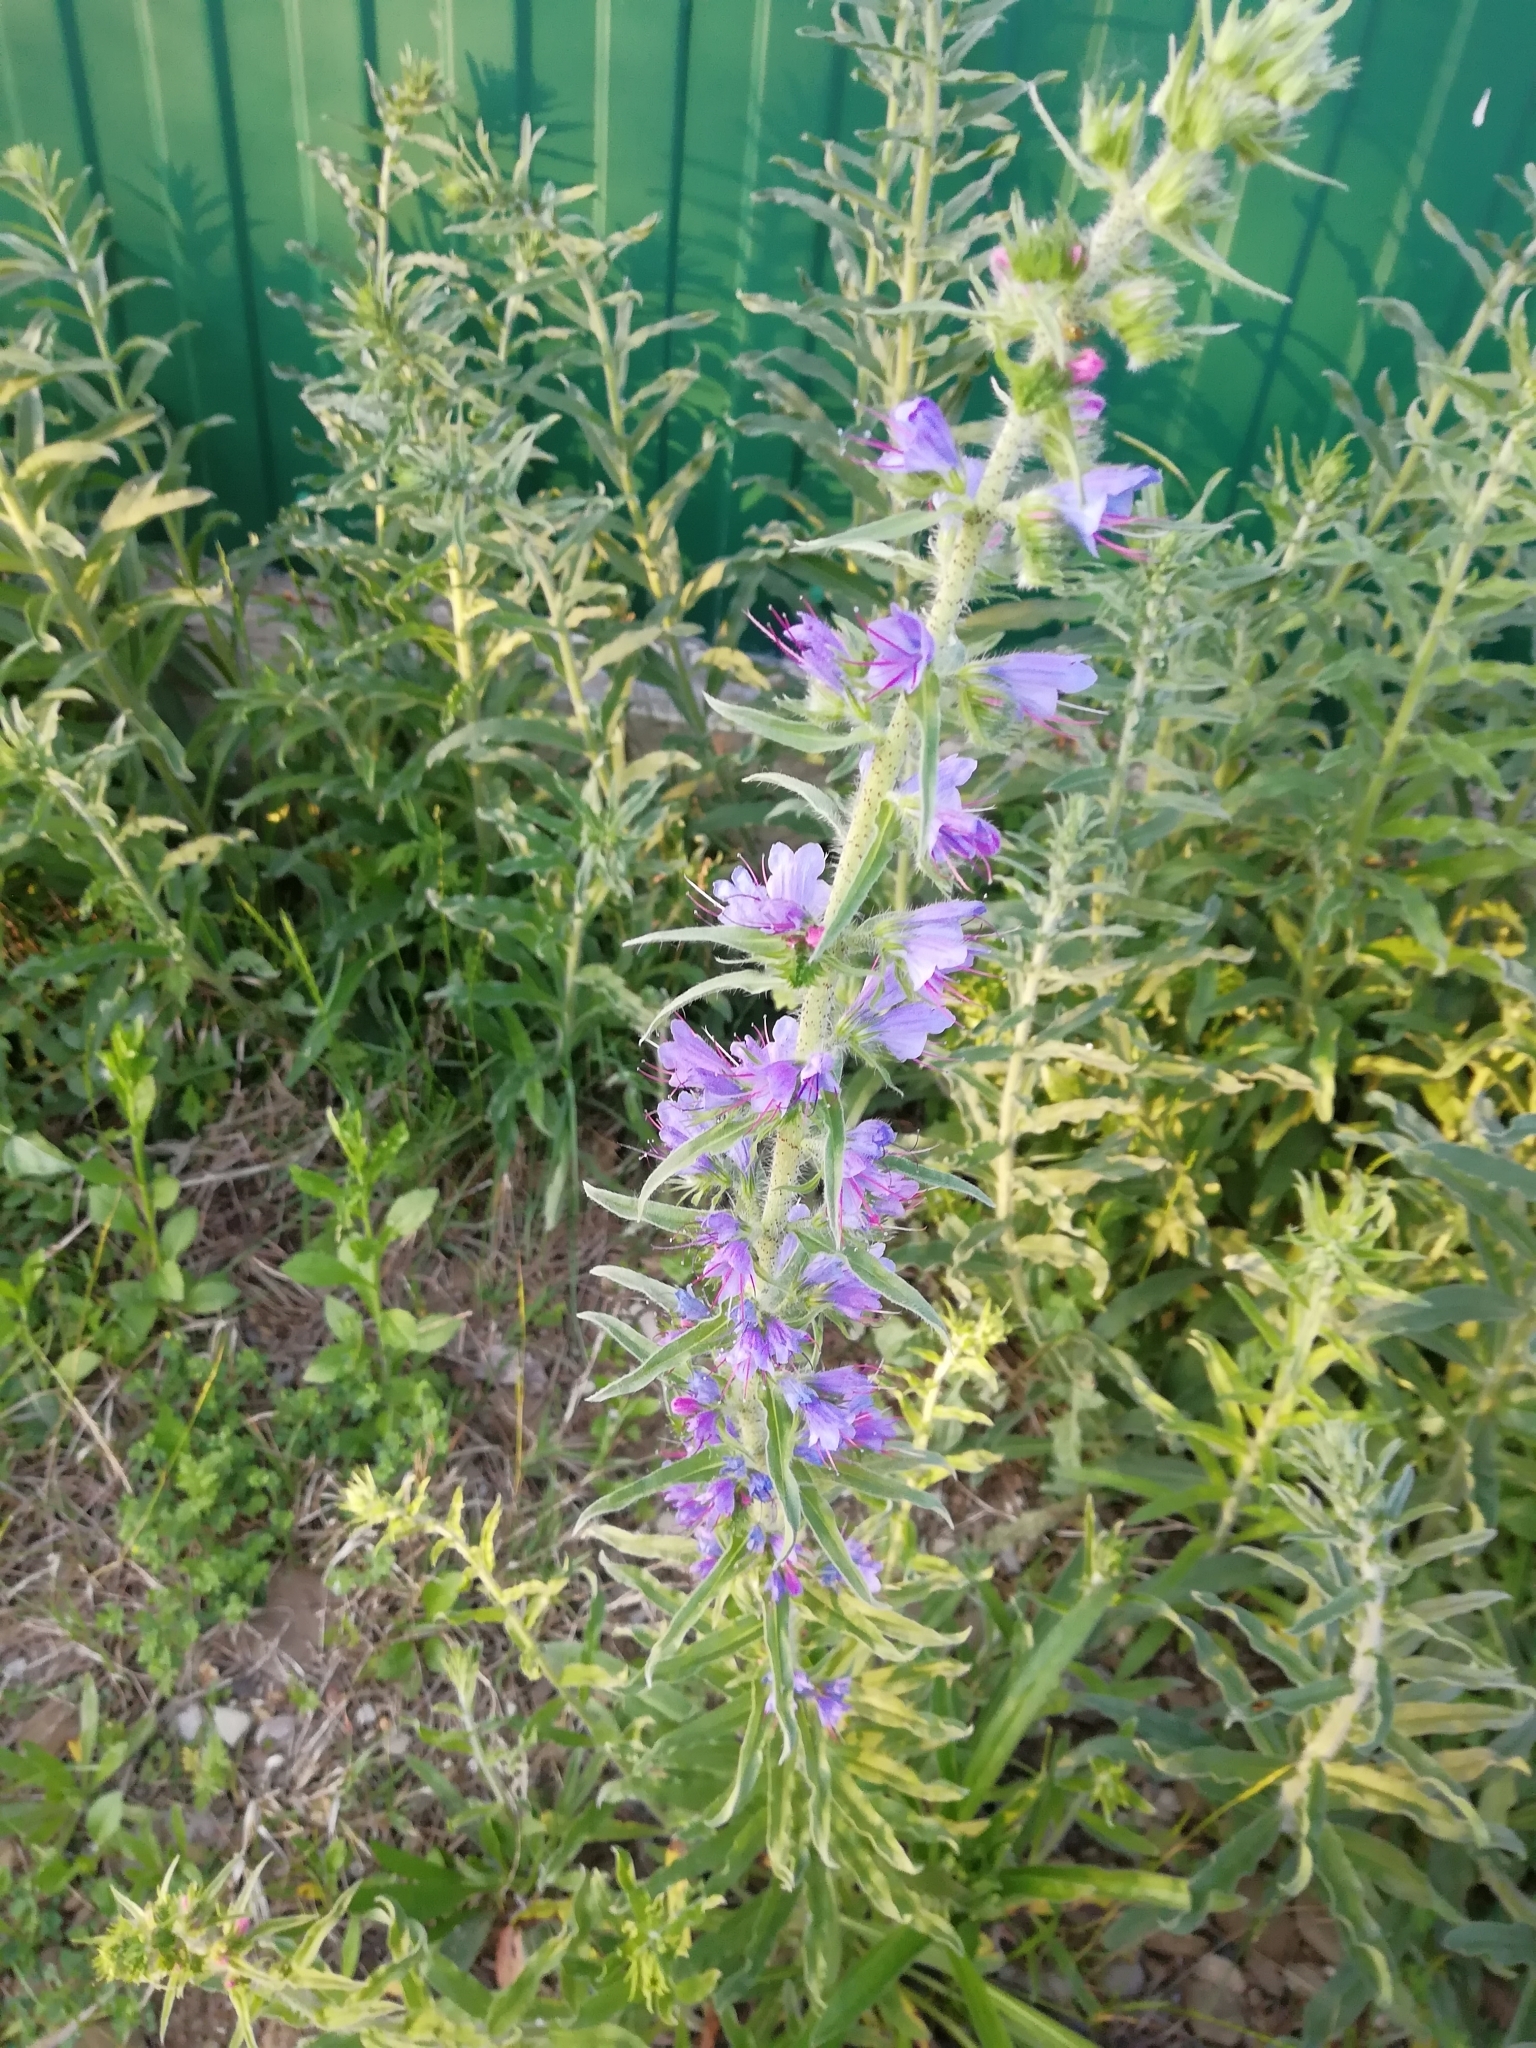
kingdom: Plantae
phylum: Tracheophyta
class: Magnoliopsida
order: Boraginales
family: Boraginaceae
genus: Echium
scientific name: Echium vulgare
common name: Common viper's bugloss
